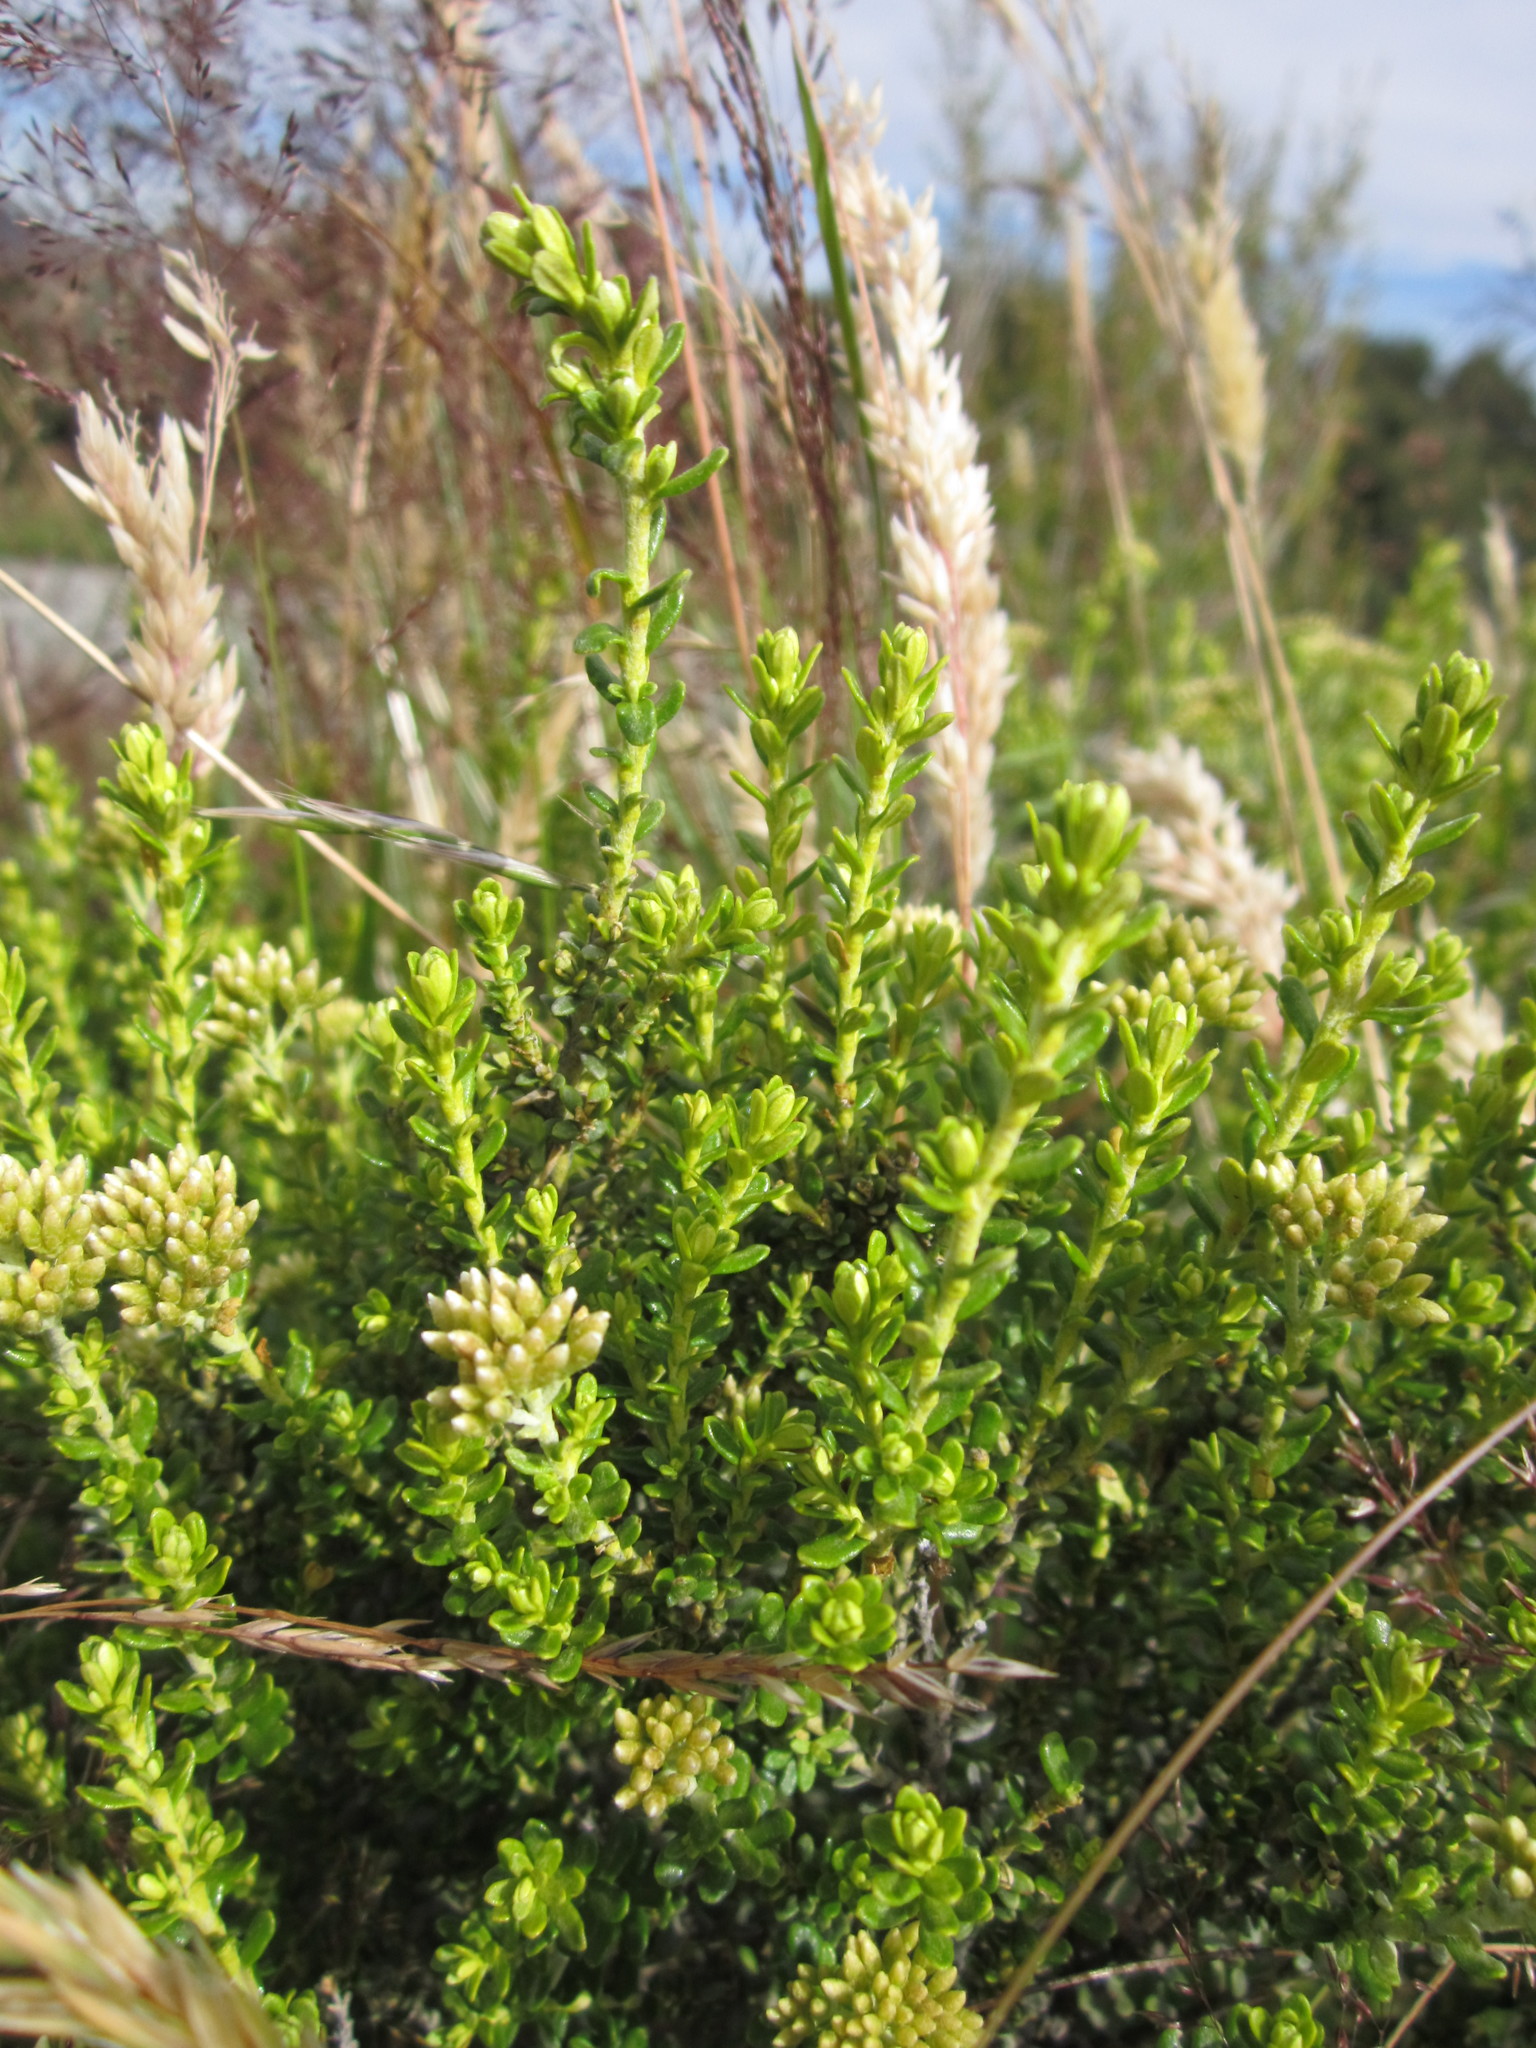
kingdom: Plantae
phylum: Tracheophyta
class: Magnoliopsida
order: Asterales
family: Asteraceae
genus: Ozothamnus
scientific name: Ozothamnus leptophyllus
